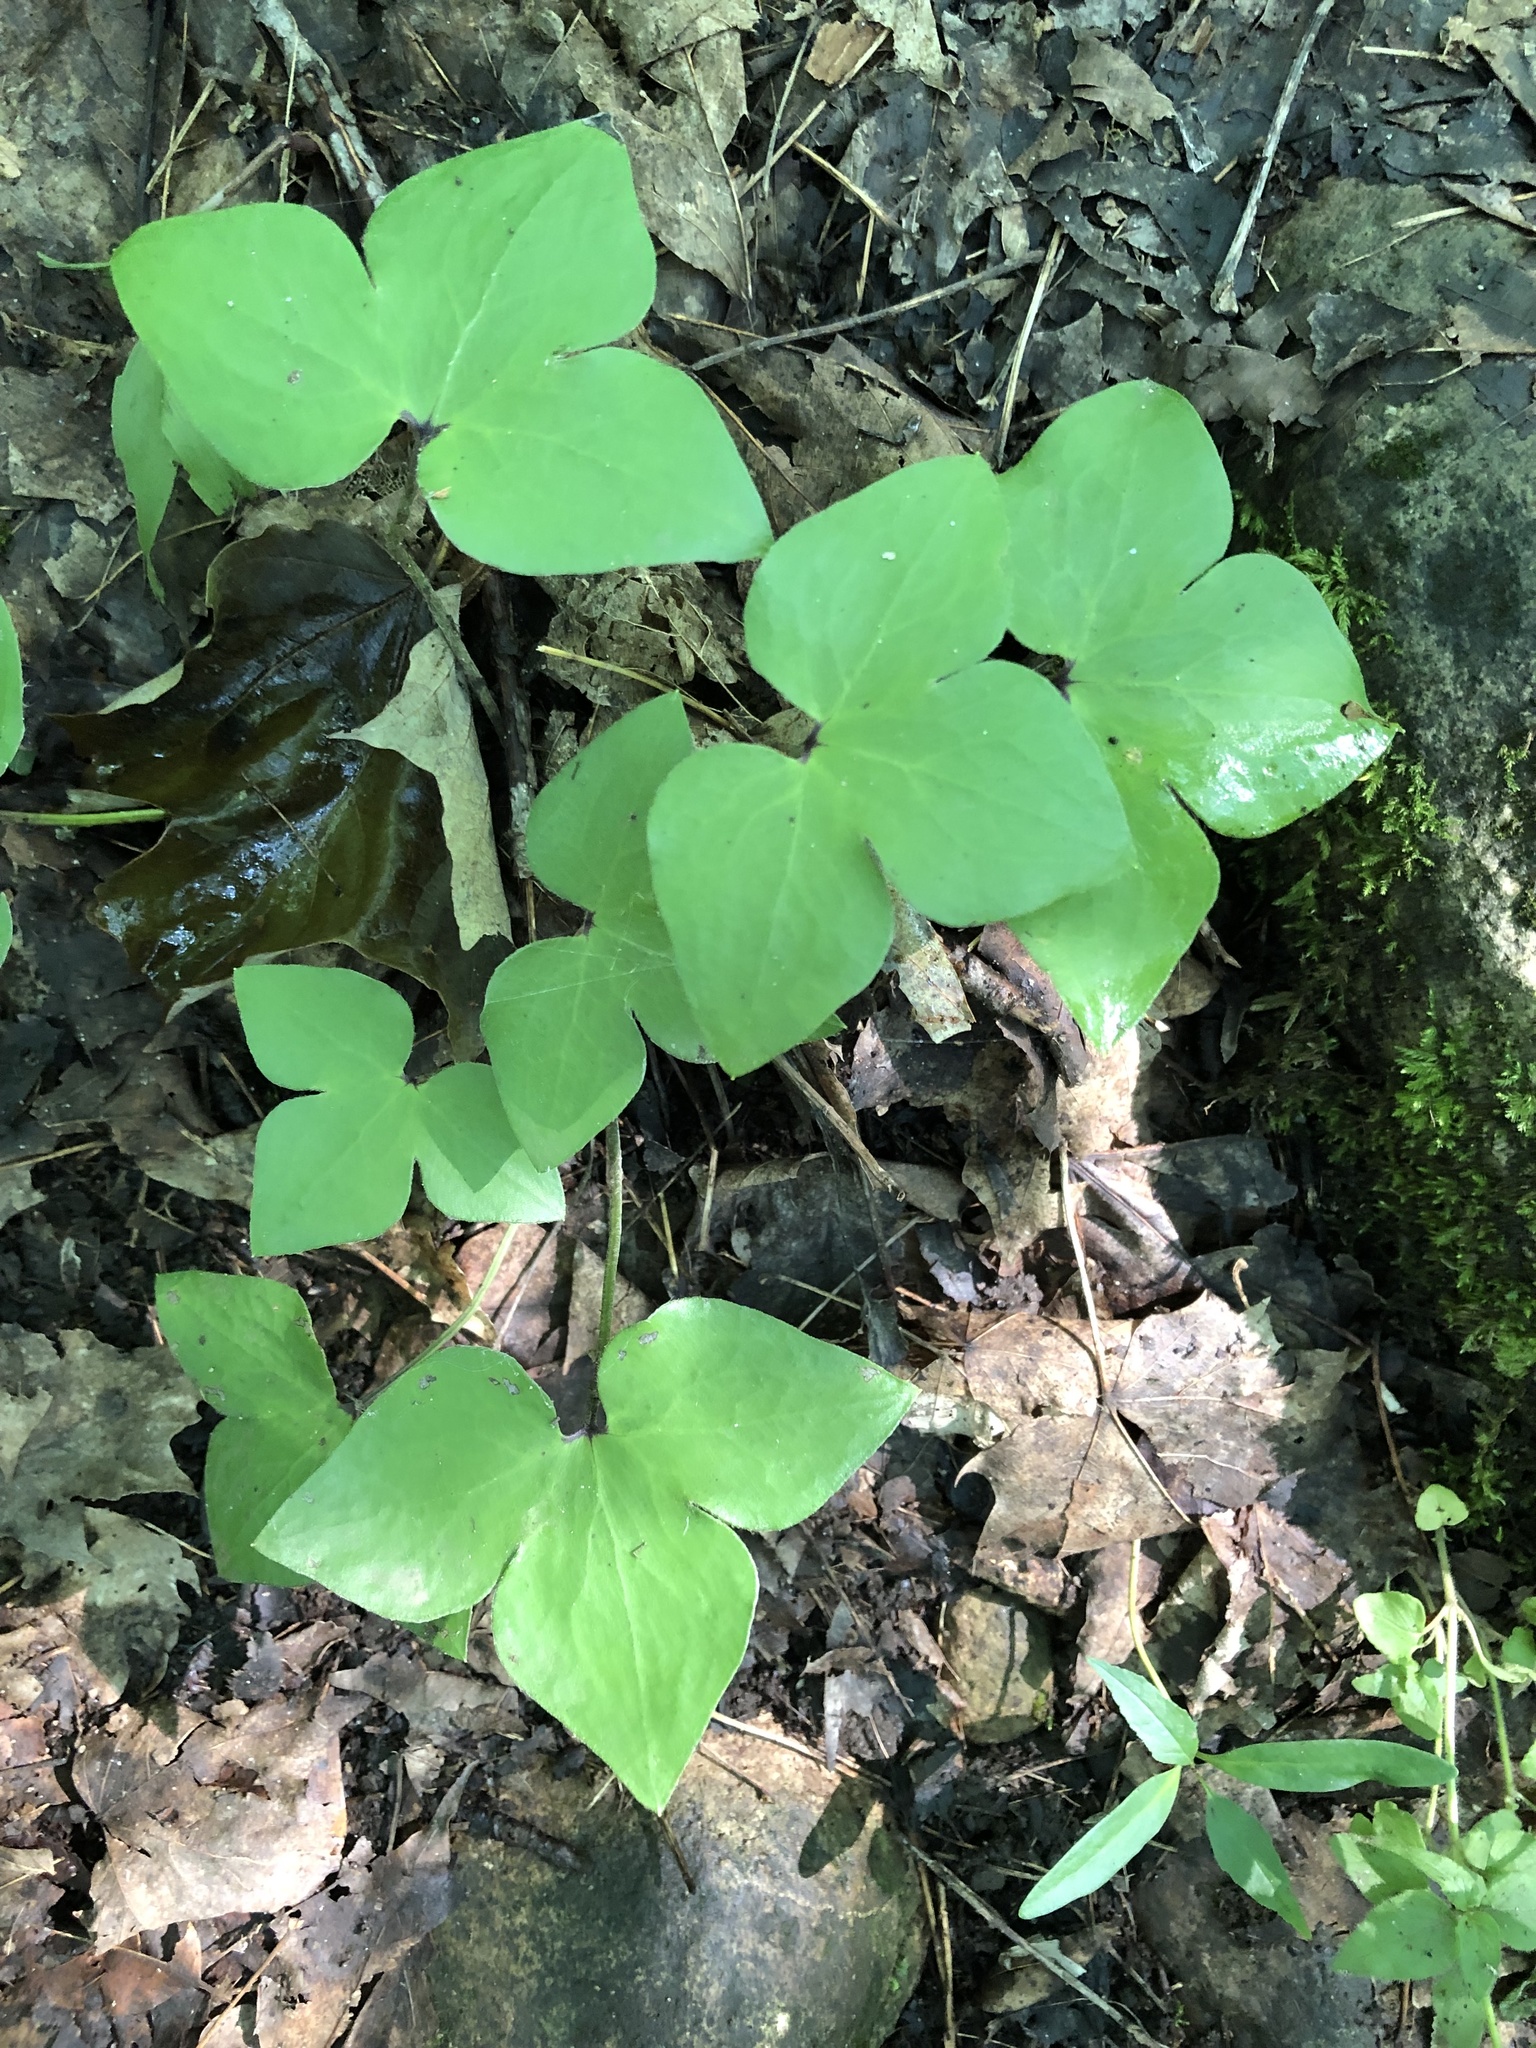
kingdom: Plantae
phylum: Tracheophyta
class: Magnoliopsida
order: Ranunculales
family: Ranunculaceae
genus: Hepatica
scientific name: Hepatica acutiloba
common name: Sharp-lobed hepatica
